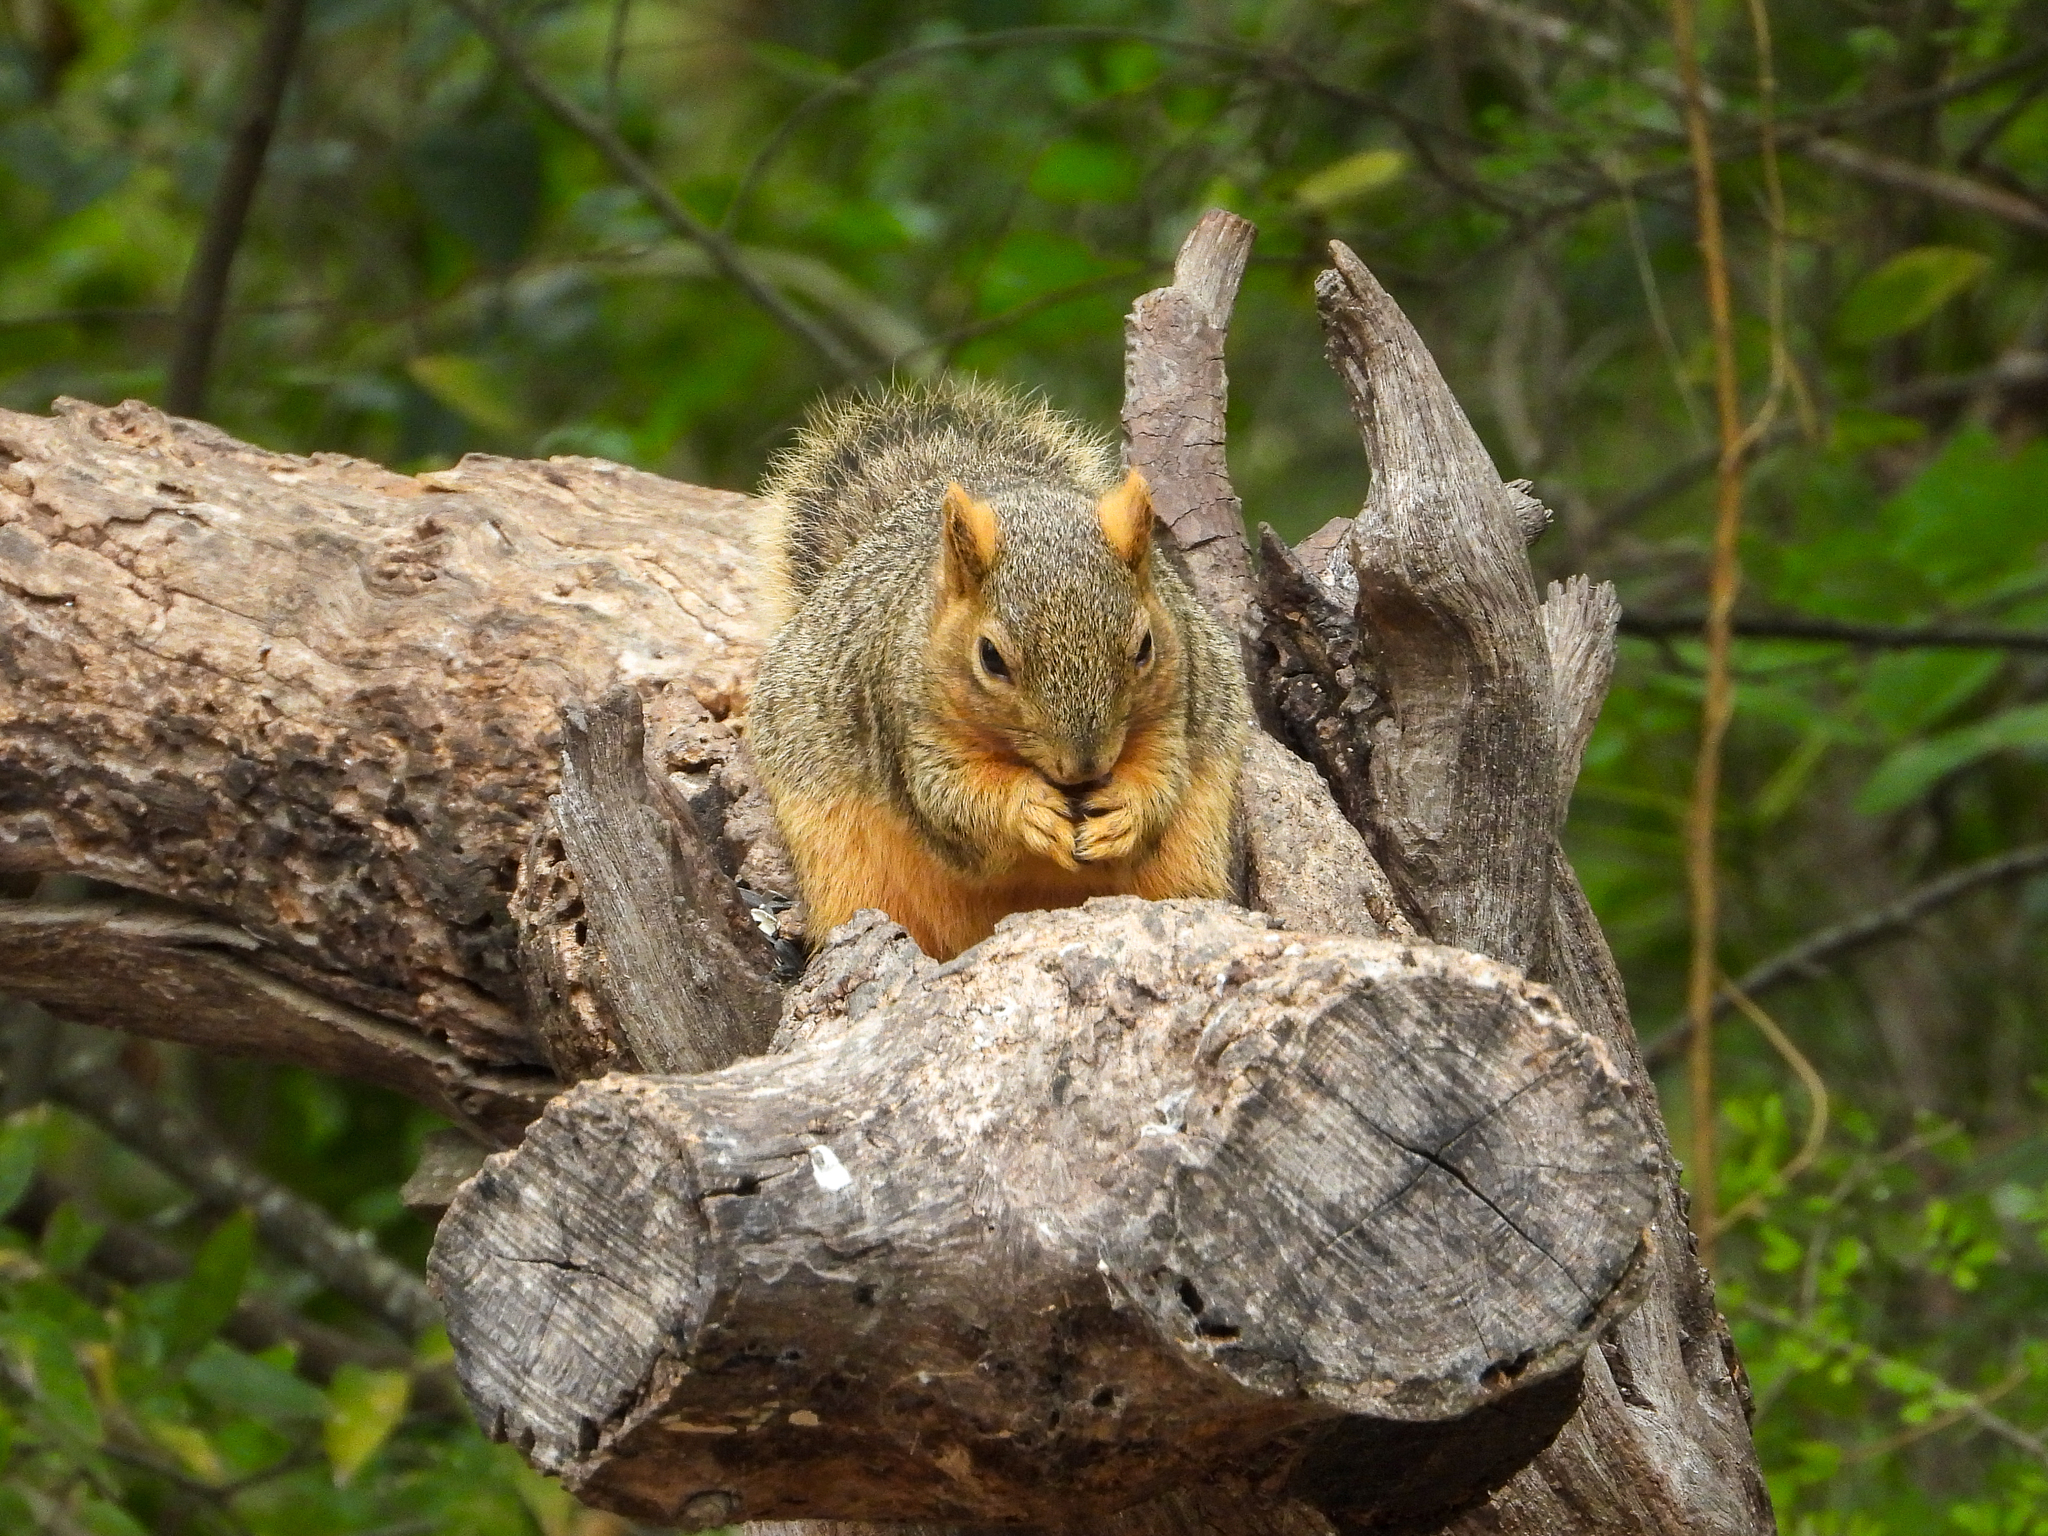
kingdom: Animalia
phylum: Chordata
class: Mammalia
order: Rodentia
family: Sciuridae
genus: Sciurus
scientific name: Sciurus niger
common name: Fox squirrel
